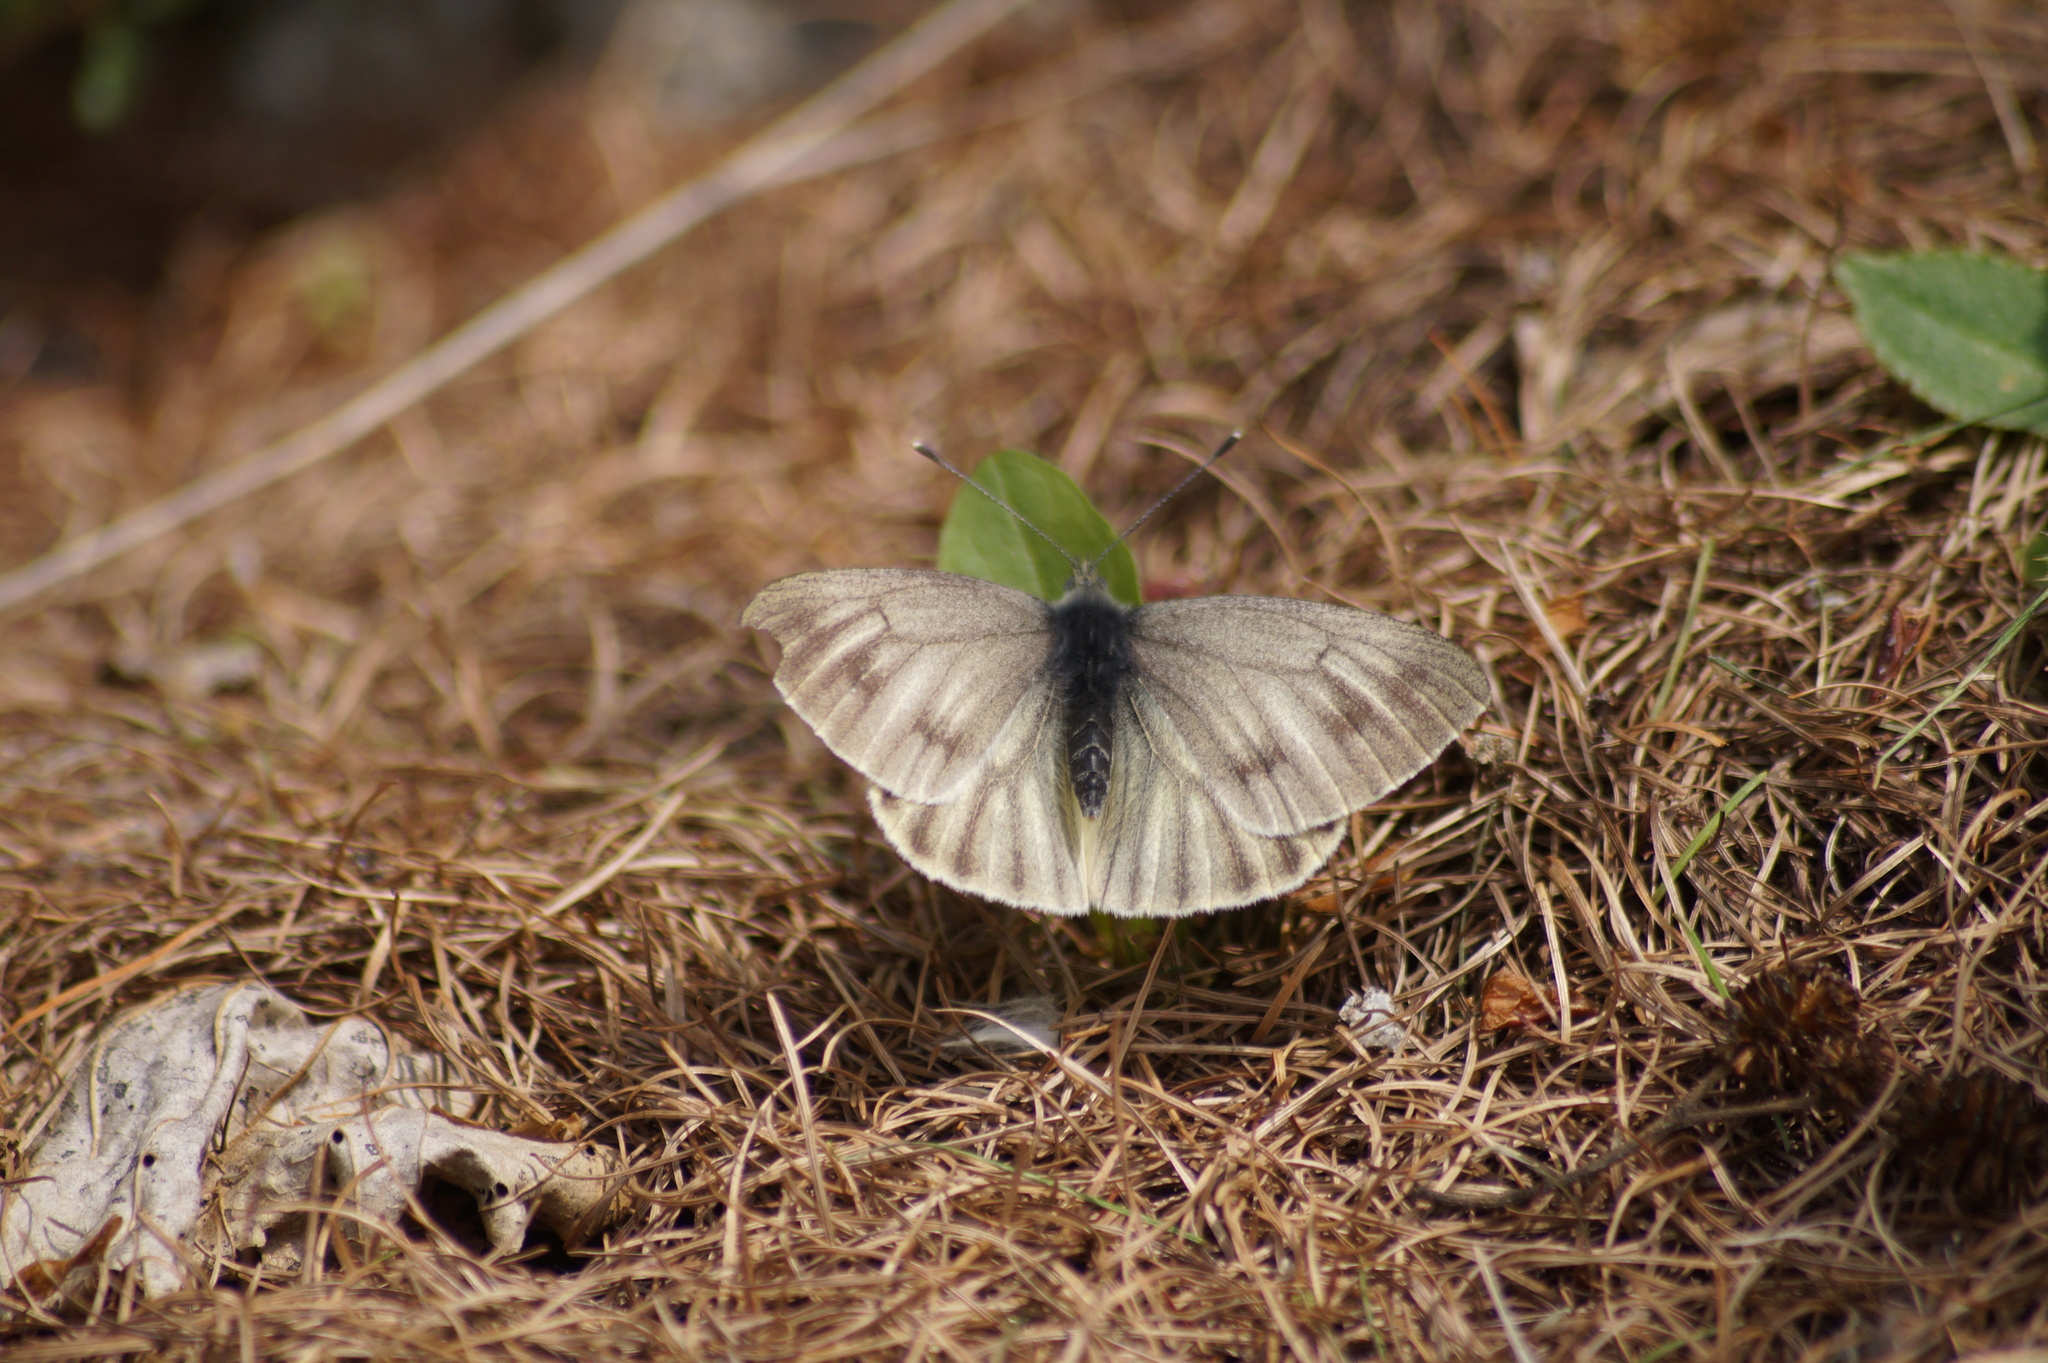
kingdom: Animalia
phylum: Arthropoda
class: Insecta
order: Lepidoptera
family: Pieridae
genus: Pieris
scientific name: Pieris bryoniae
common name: Mountain green-veined white
